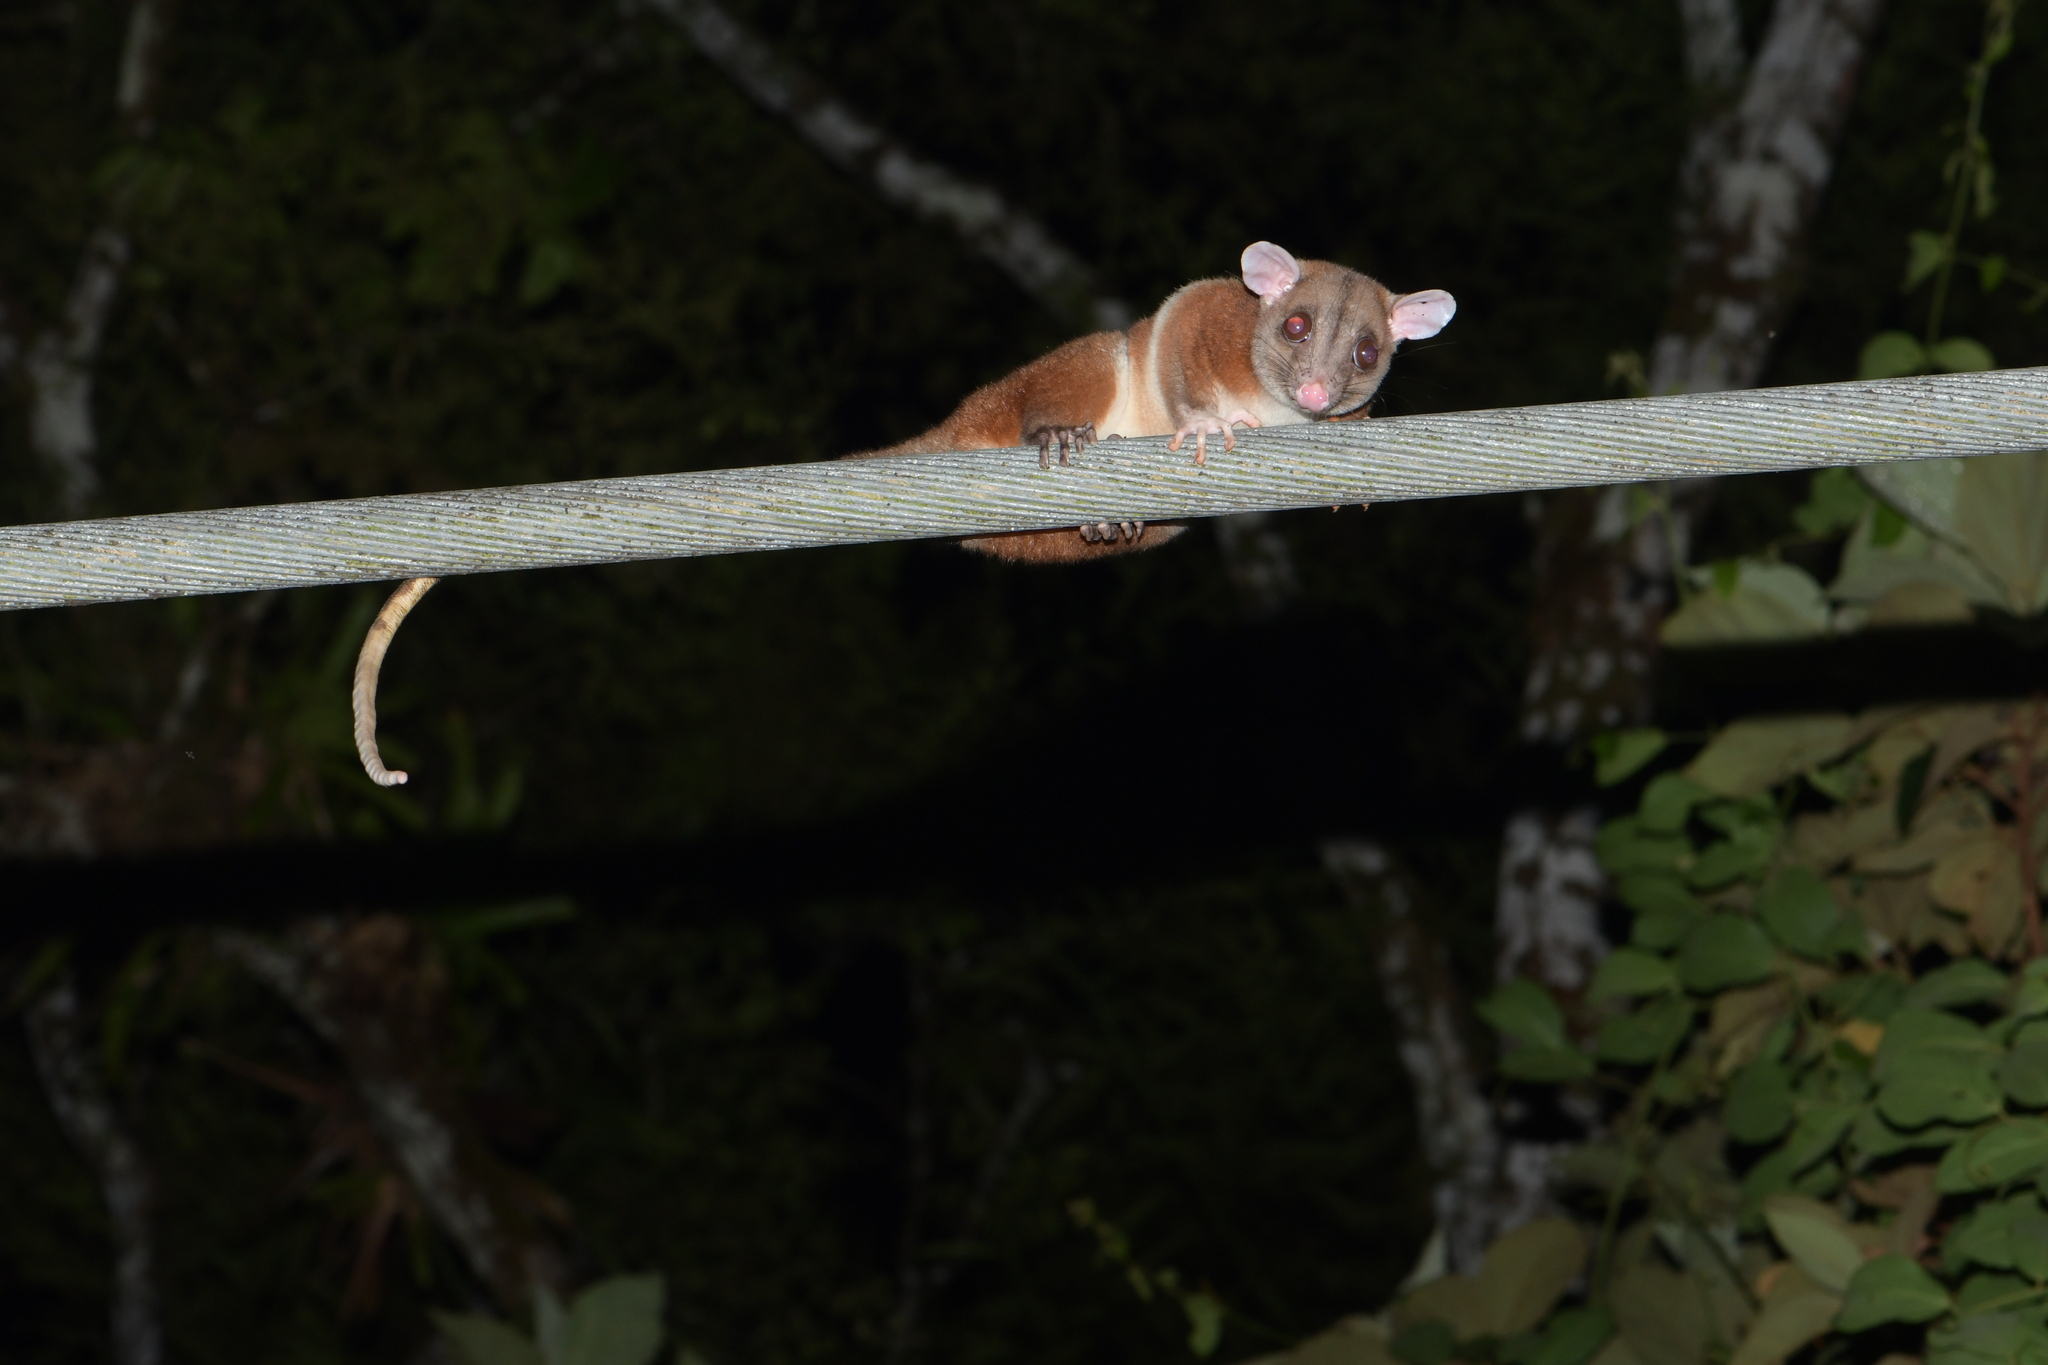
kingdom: Animalia
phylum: Chordata
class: Mammalia
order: Didelphimorphia
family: Didelphidae
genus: Caluromys
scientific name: Caluromys derbianus
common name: Derby's woolly opossum
